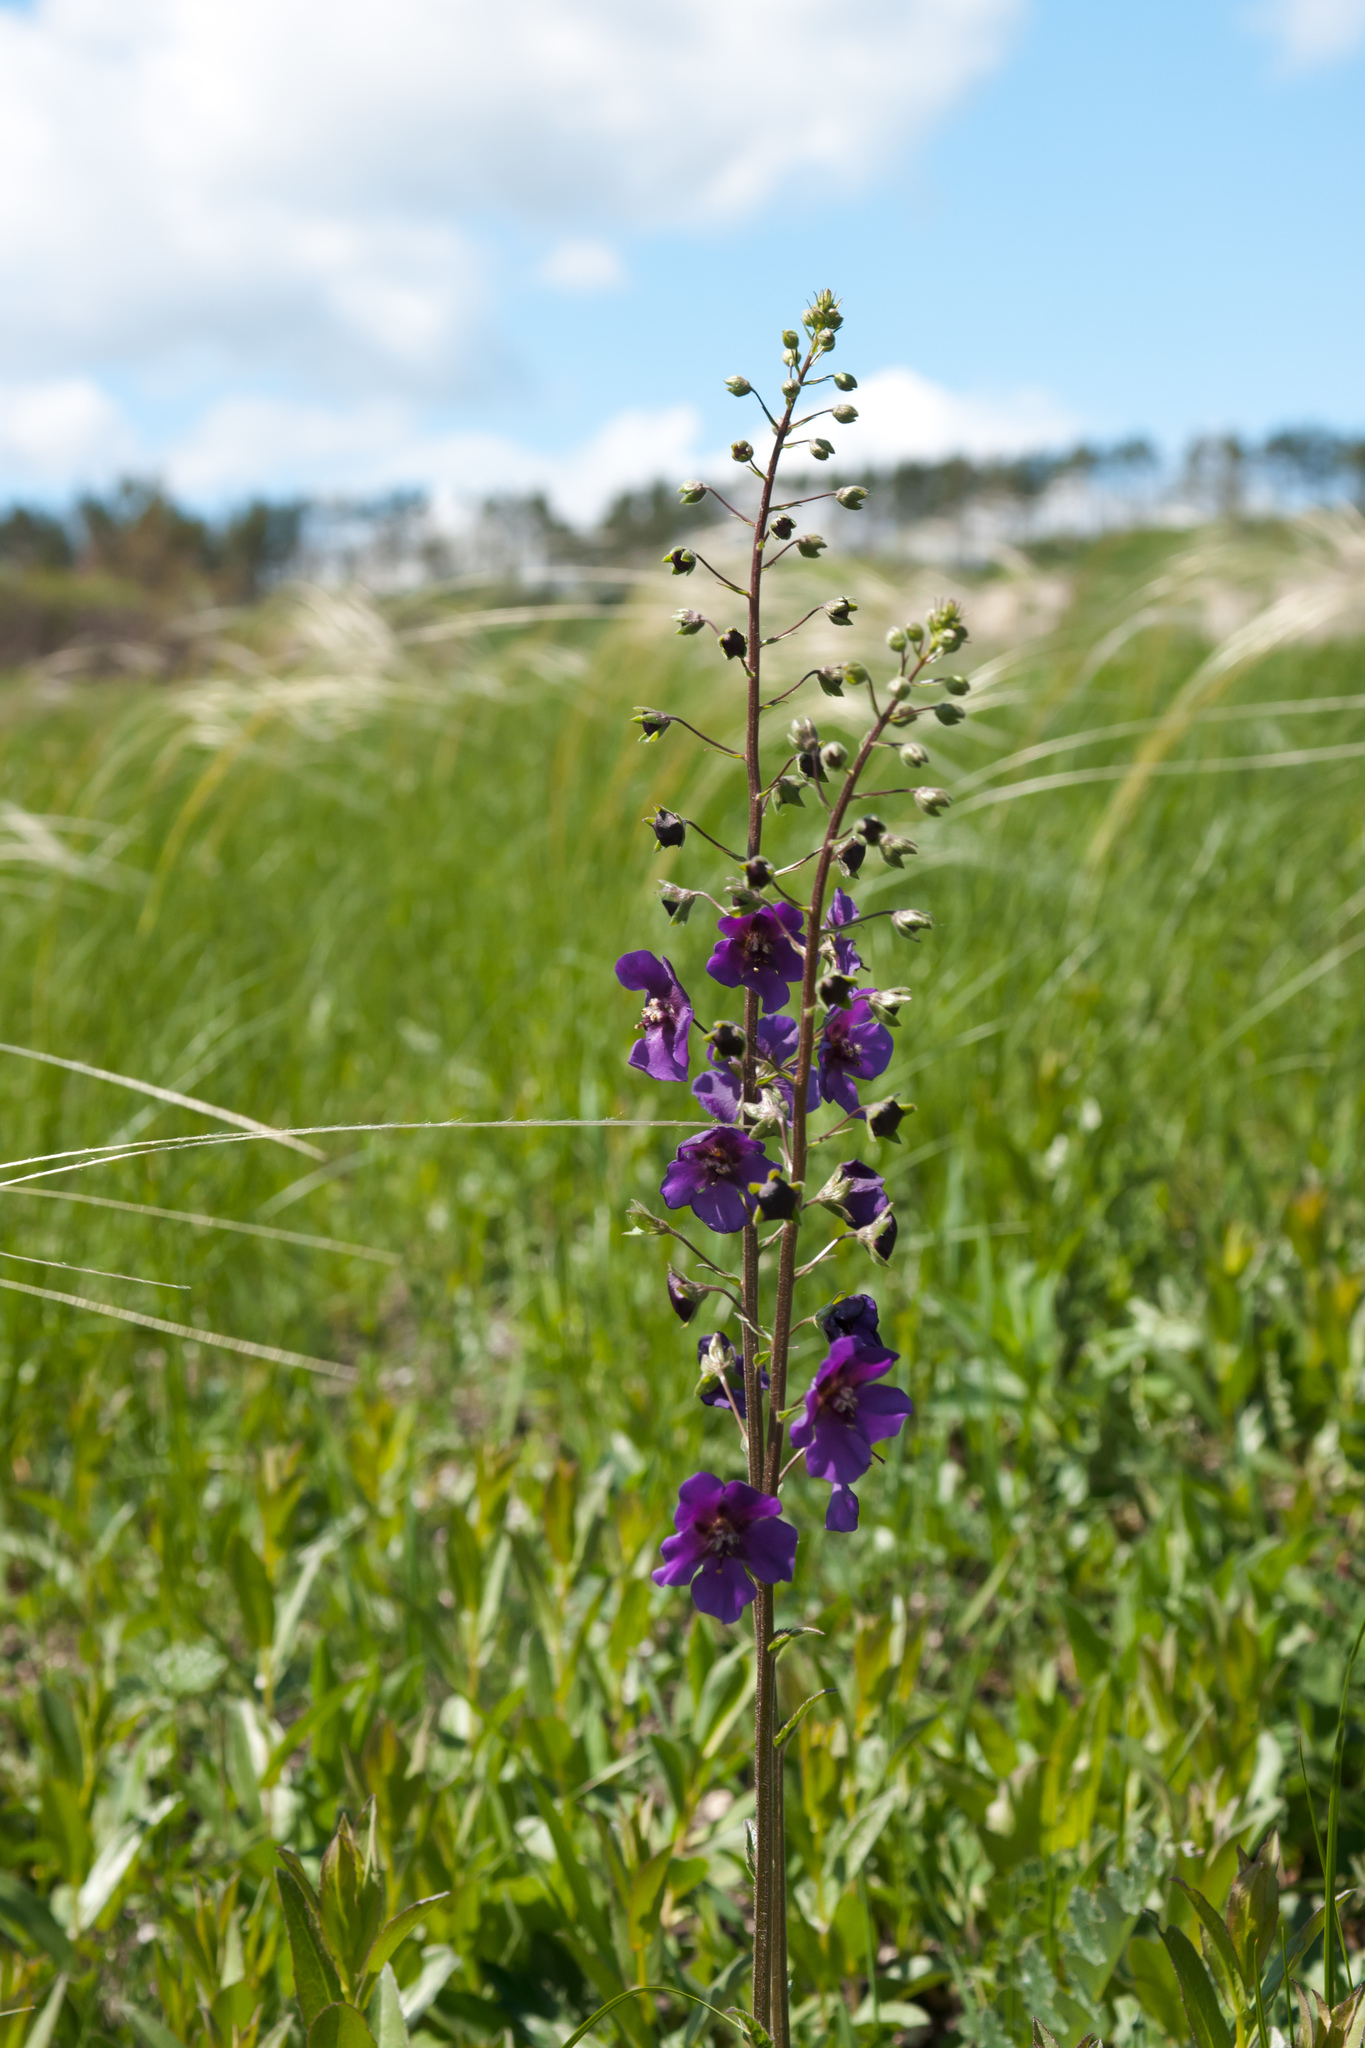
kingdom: Plantae
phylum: Tracheophyta
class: Magnoliopsida
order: Lamiales
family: Scrophulariaceae
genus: Verbascum
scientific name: Verbascum phoeniceum
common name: Purple mullein
